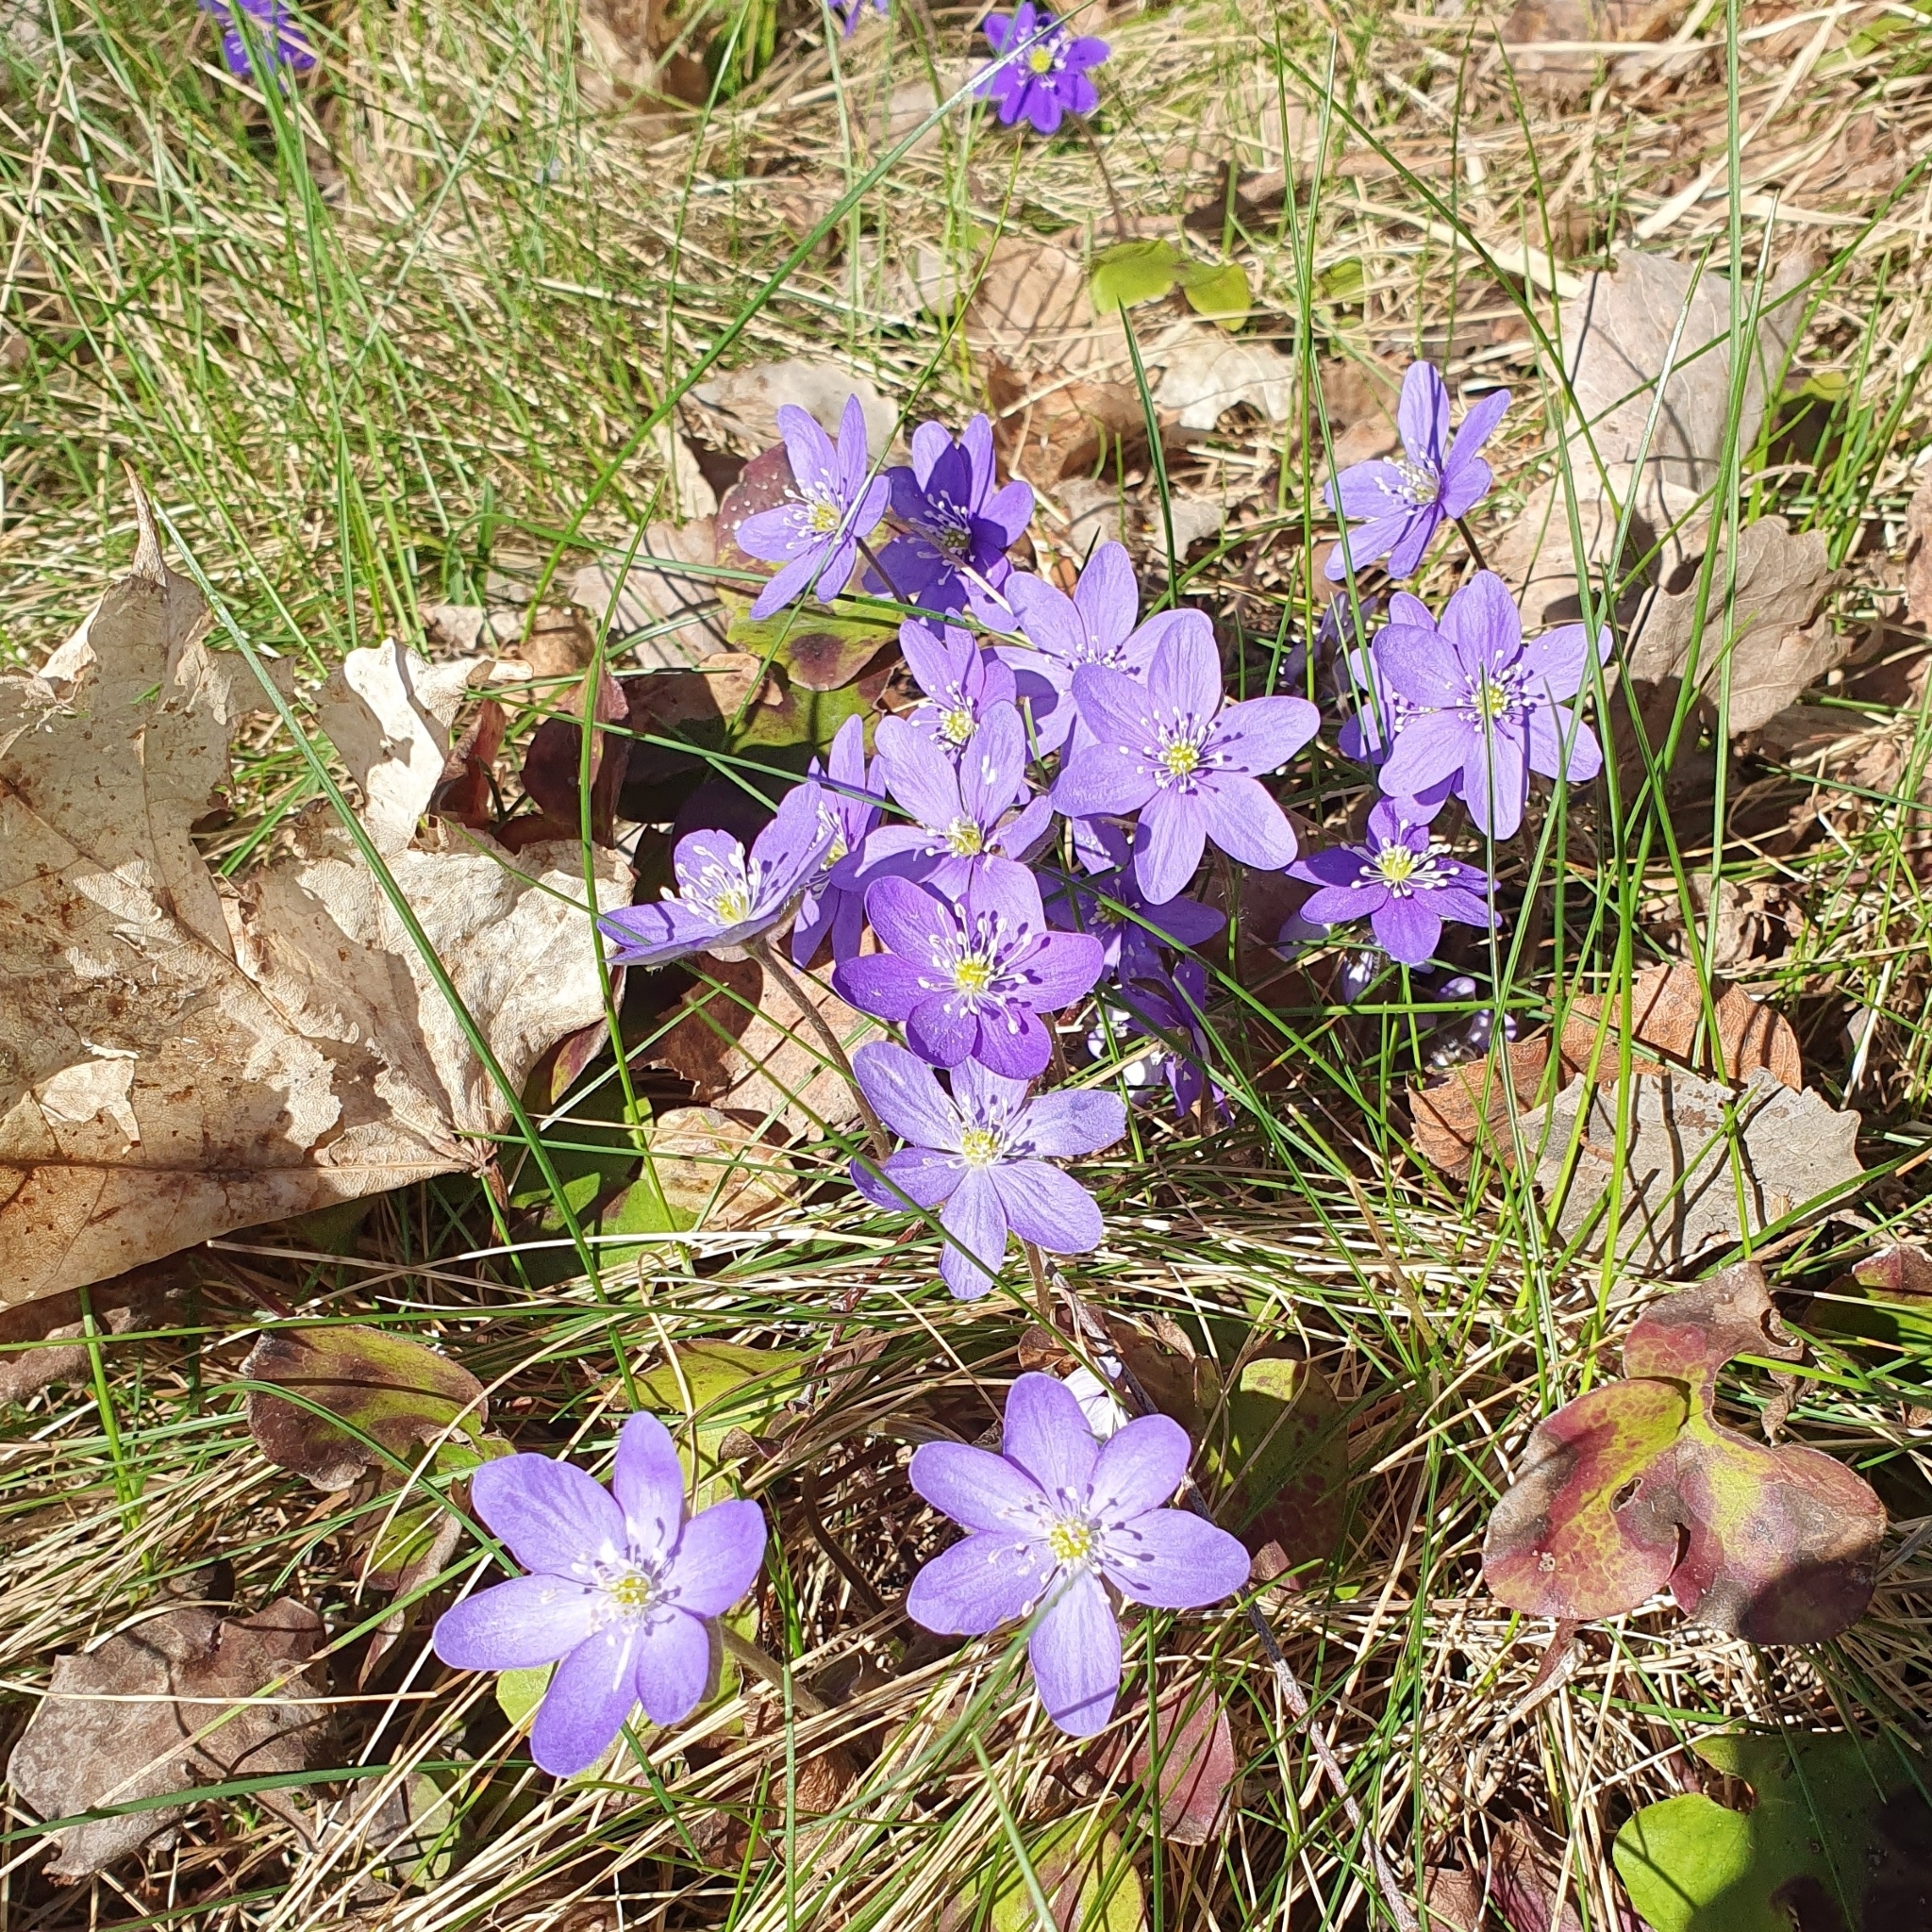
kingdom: Plantae
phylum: Tracheophyta
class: Magnoliopsida
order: Ranunculales
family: Ranunculaceae
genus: Hepatica
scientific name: Hepatica nobilis
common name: Liverleaf
